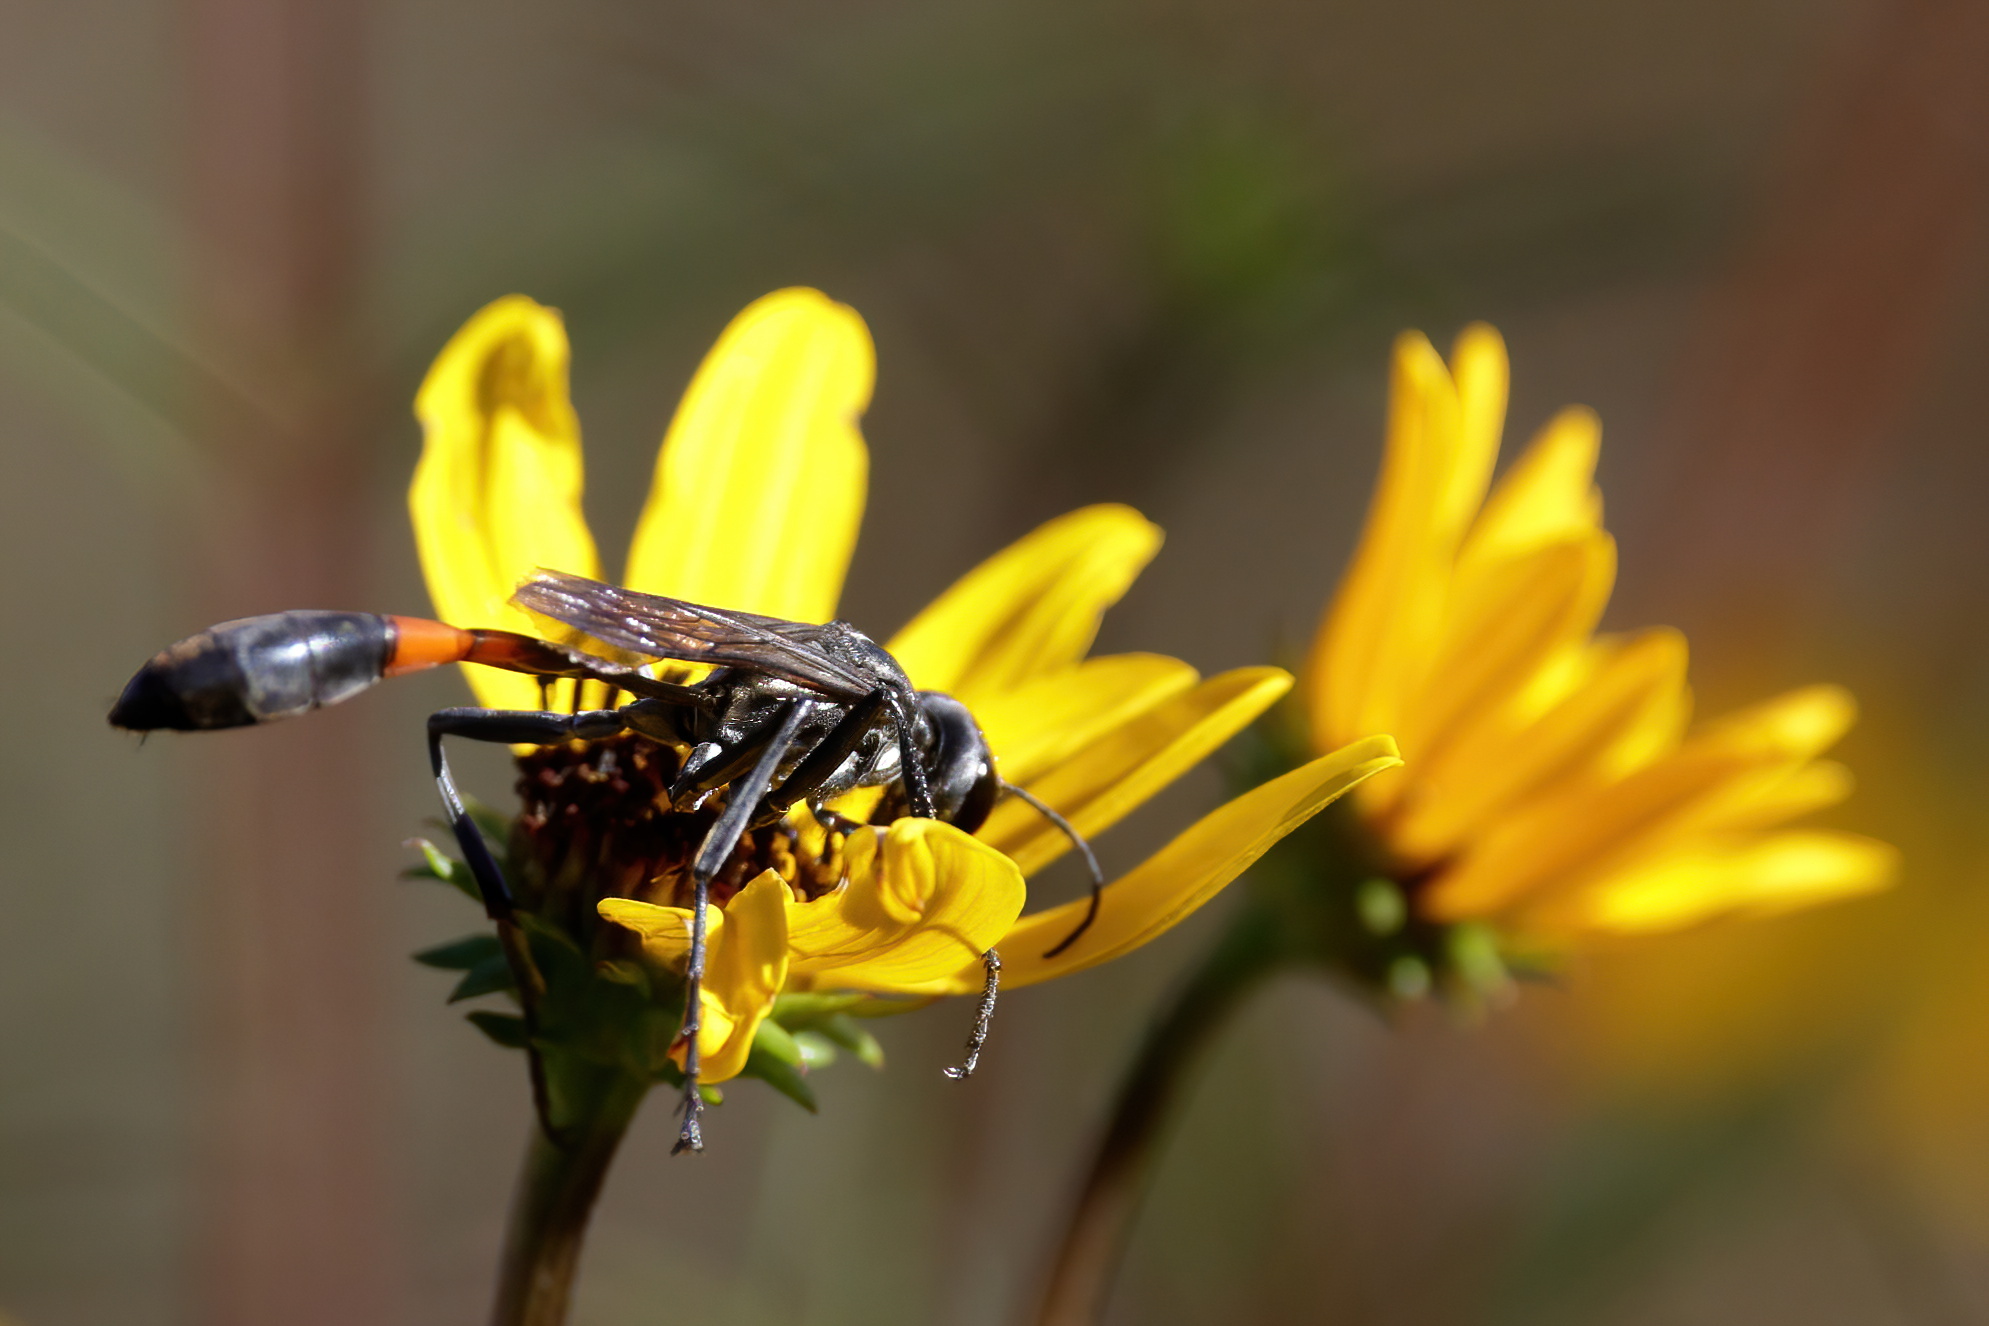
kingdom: Animalia
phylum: Arthropoda
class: Insecta
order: Hymenoptera
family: Sphecidae
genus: Ammophila
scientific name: Ammophila procera
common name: Common thread-waisted wasp
